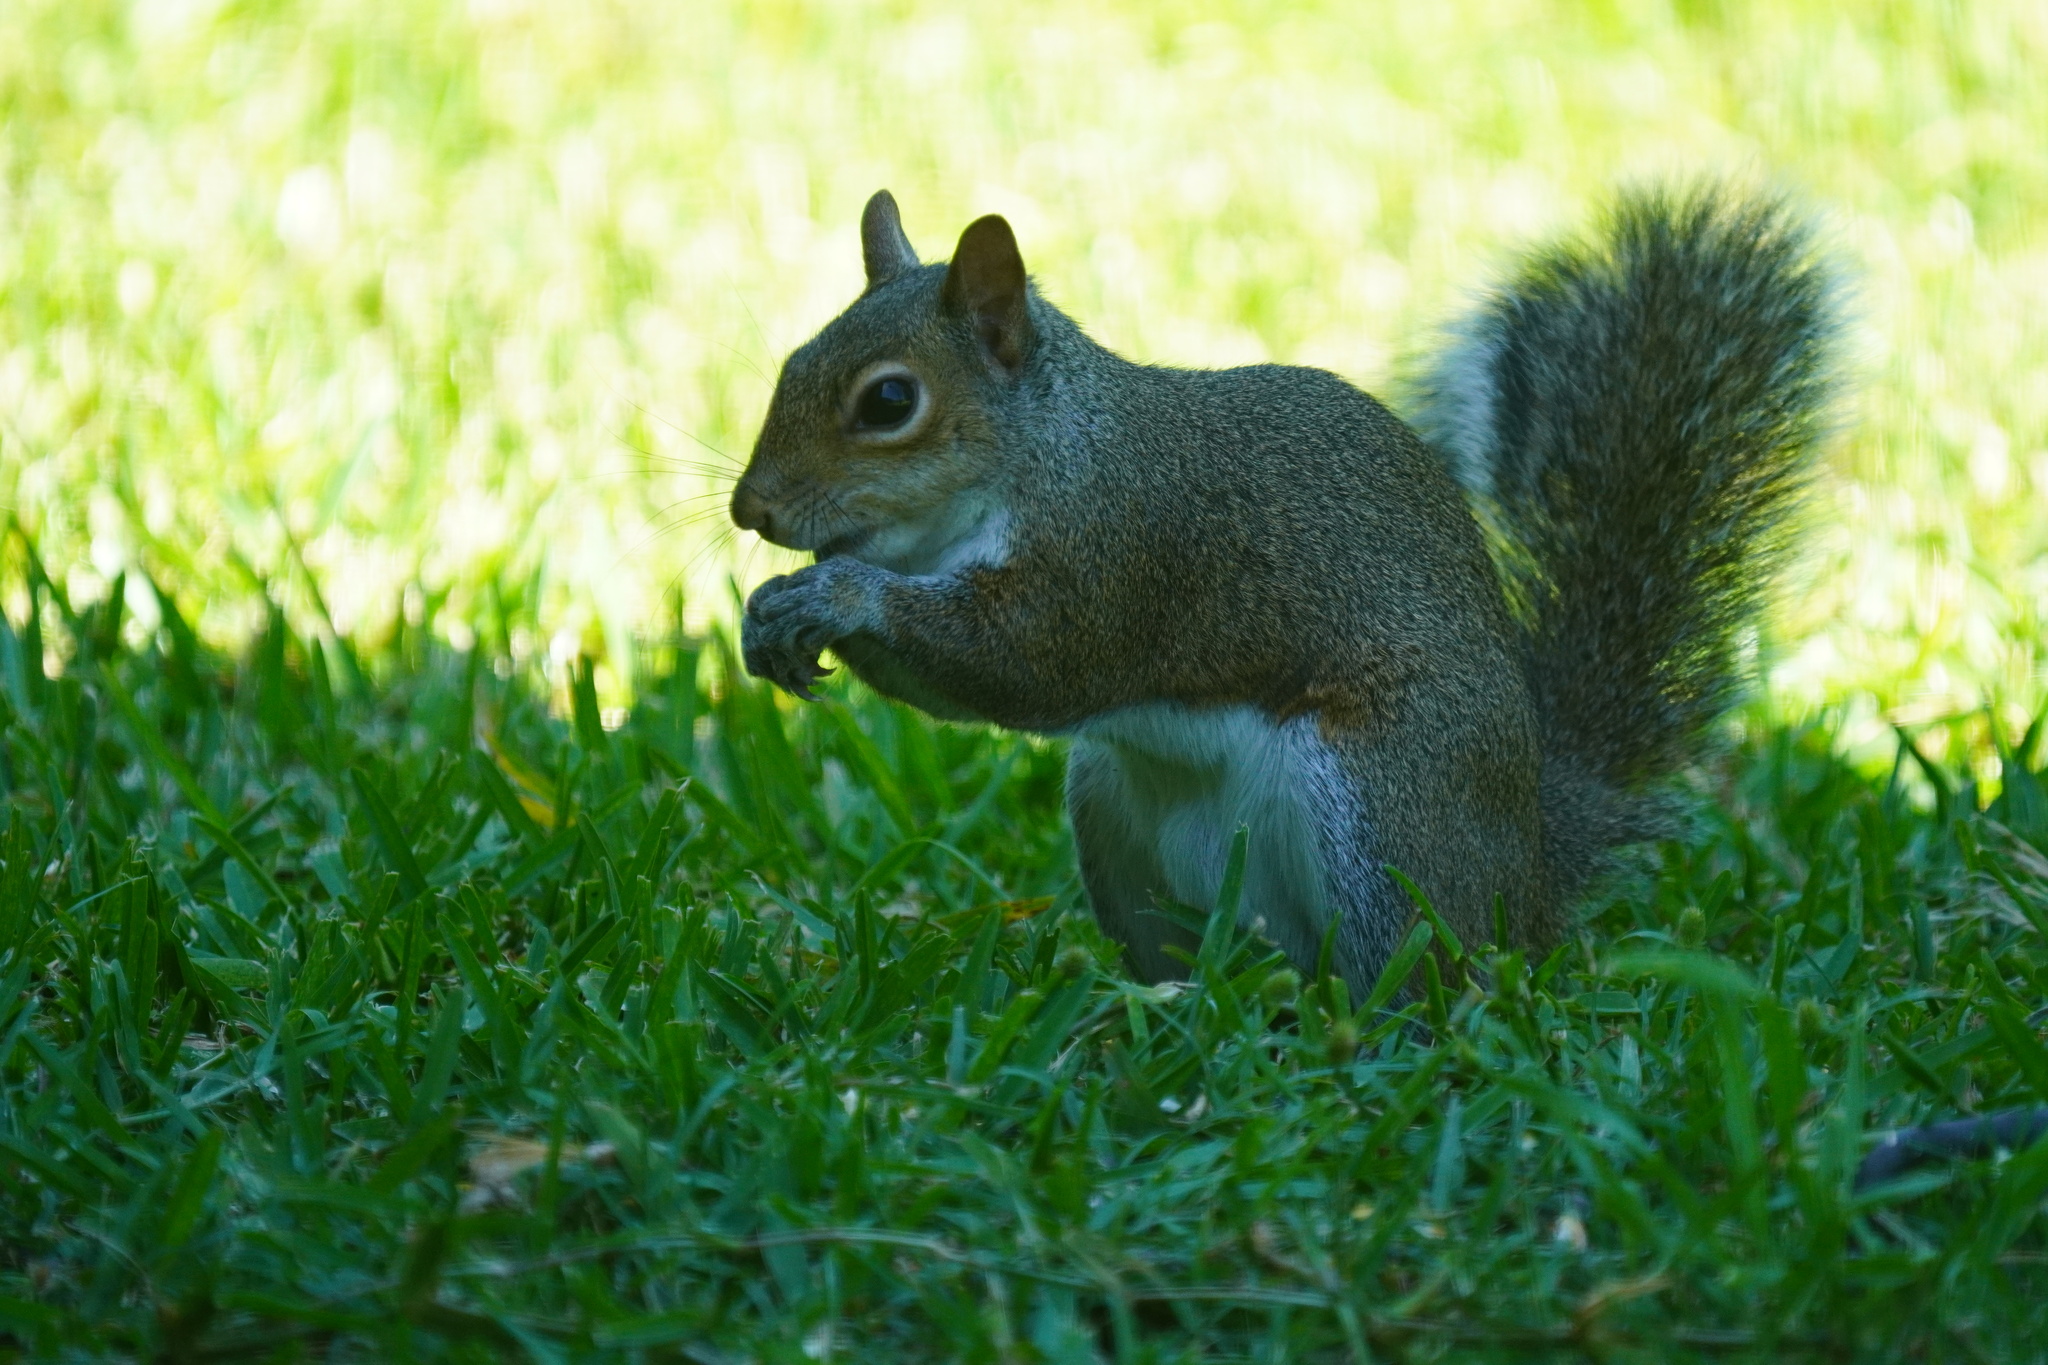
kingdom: Animalia
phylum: Chordata
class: Mammalia
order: Rodentia
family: Sciuridae
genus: Sciurus
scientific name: Sciurus carolinensis
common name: Eastern gray squirrel
